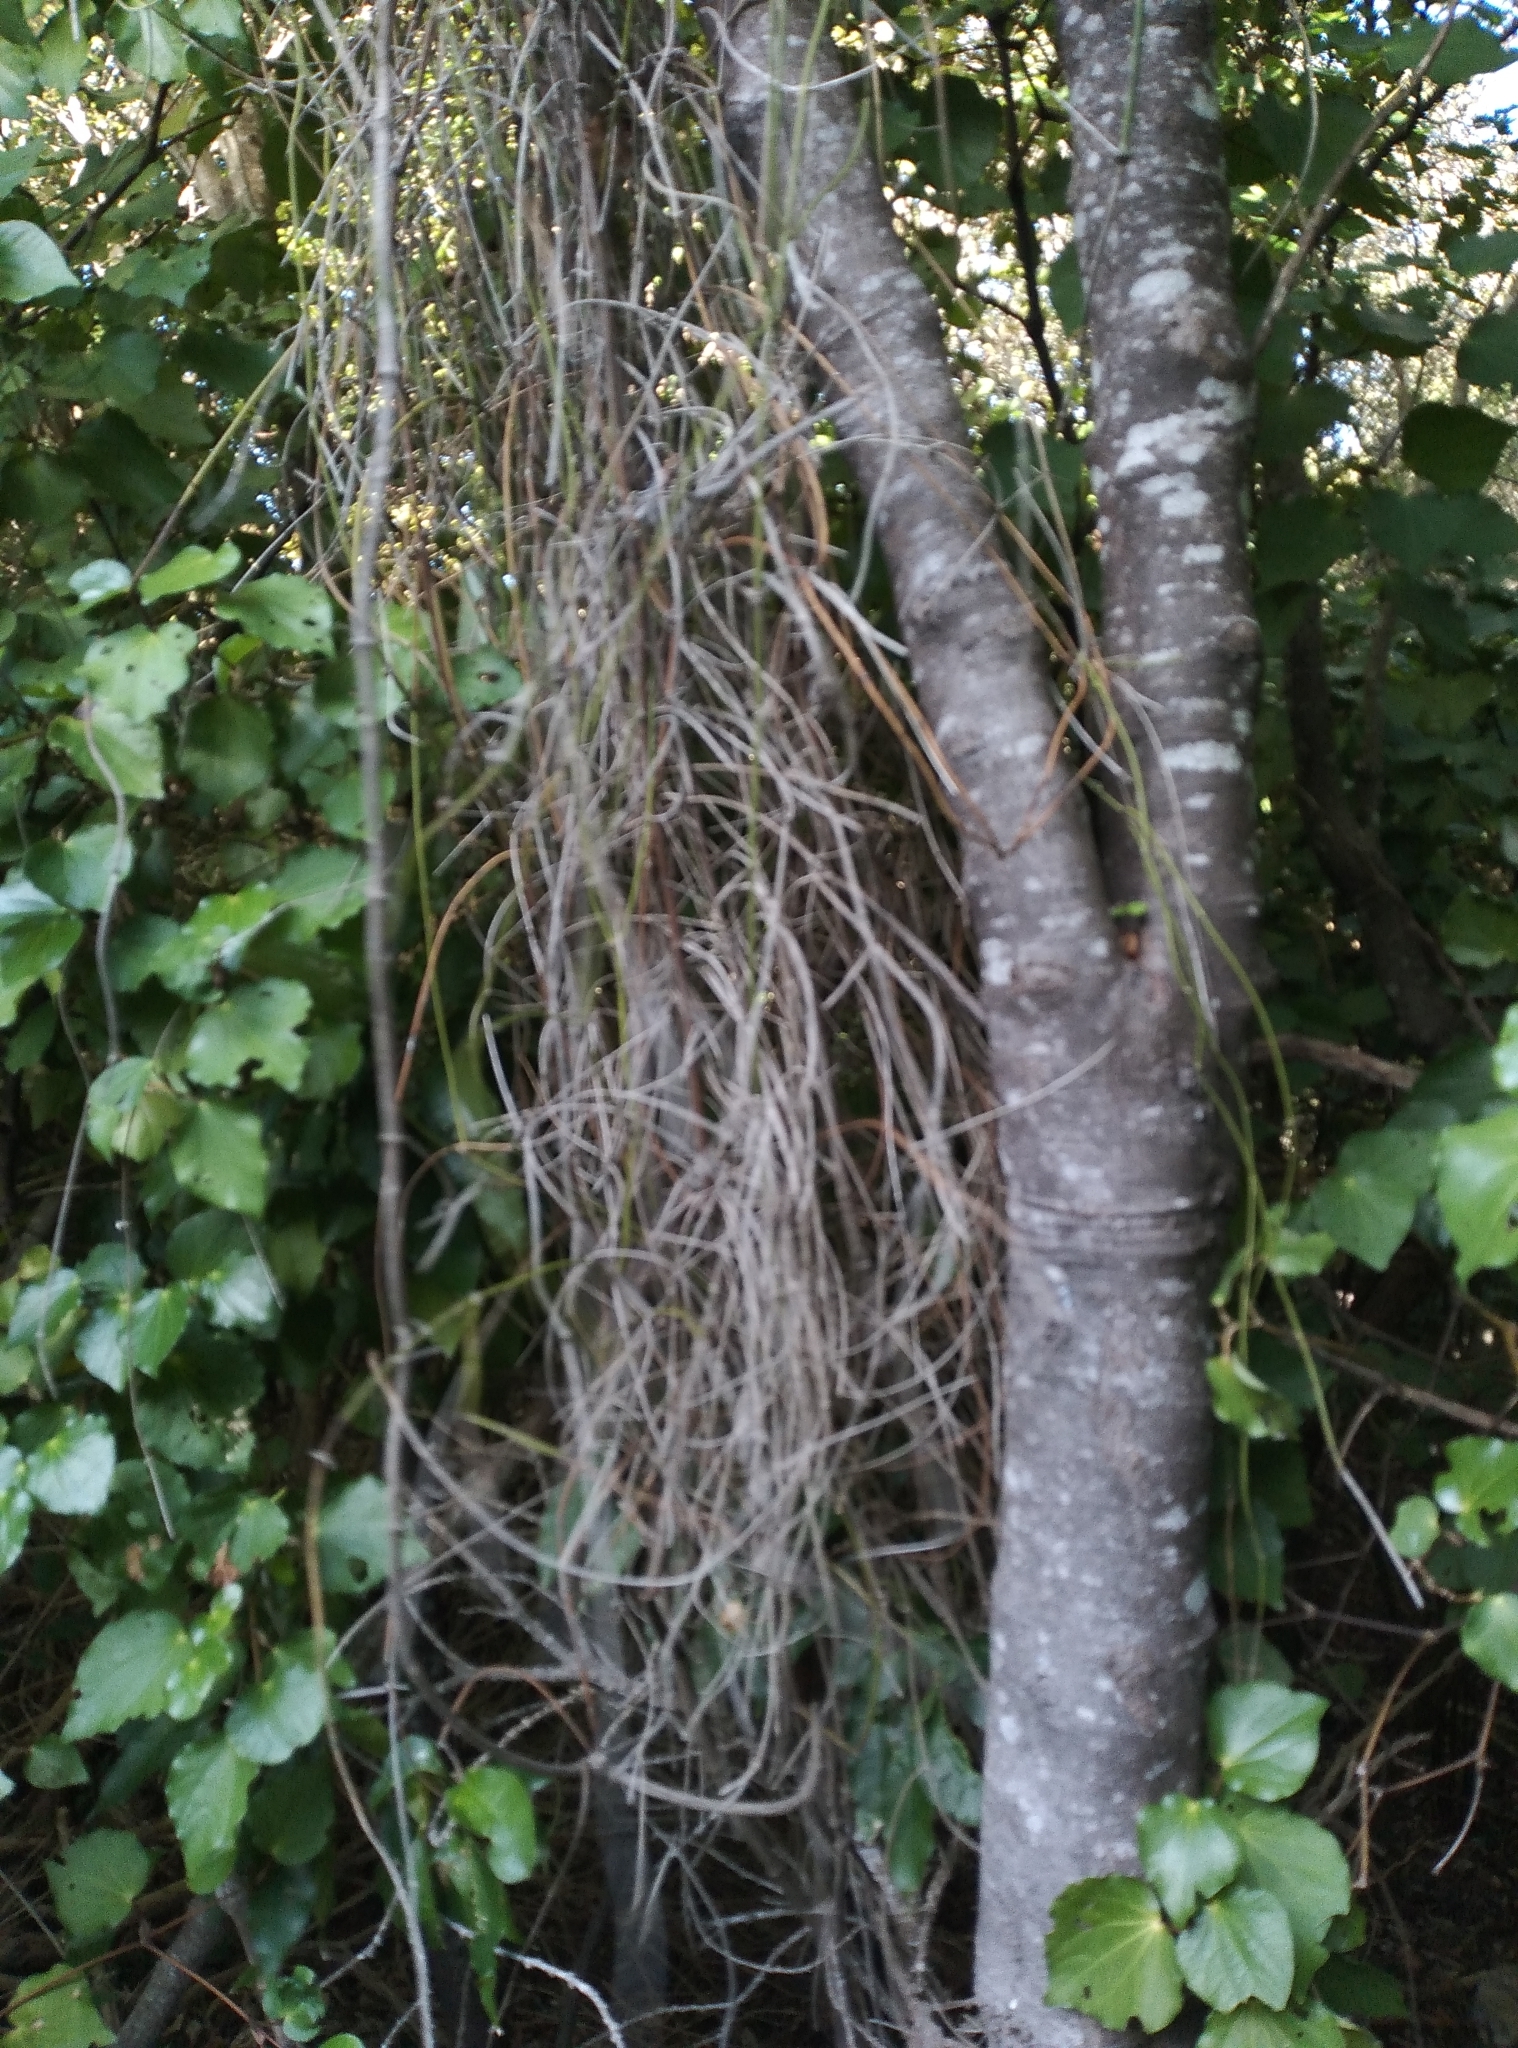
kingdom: Plantae
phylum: Tracheophyta
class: Magnoliopsida
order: Ranunculales
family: Ranunculaceae
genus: Clematis
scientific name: Clematis afoliata
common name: Rush-stem clematis
